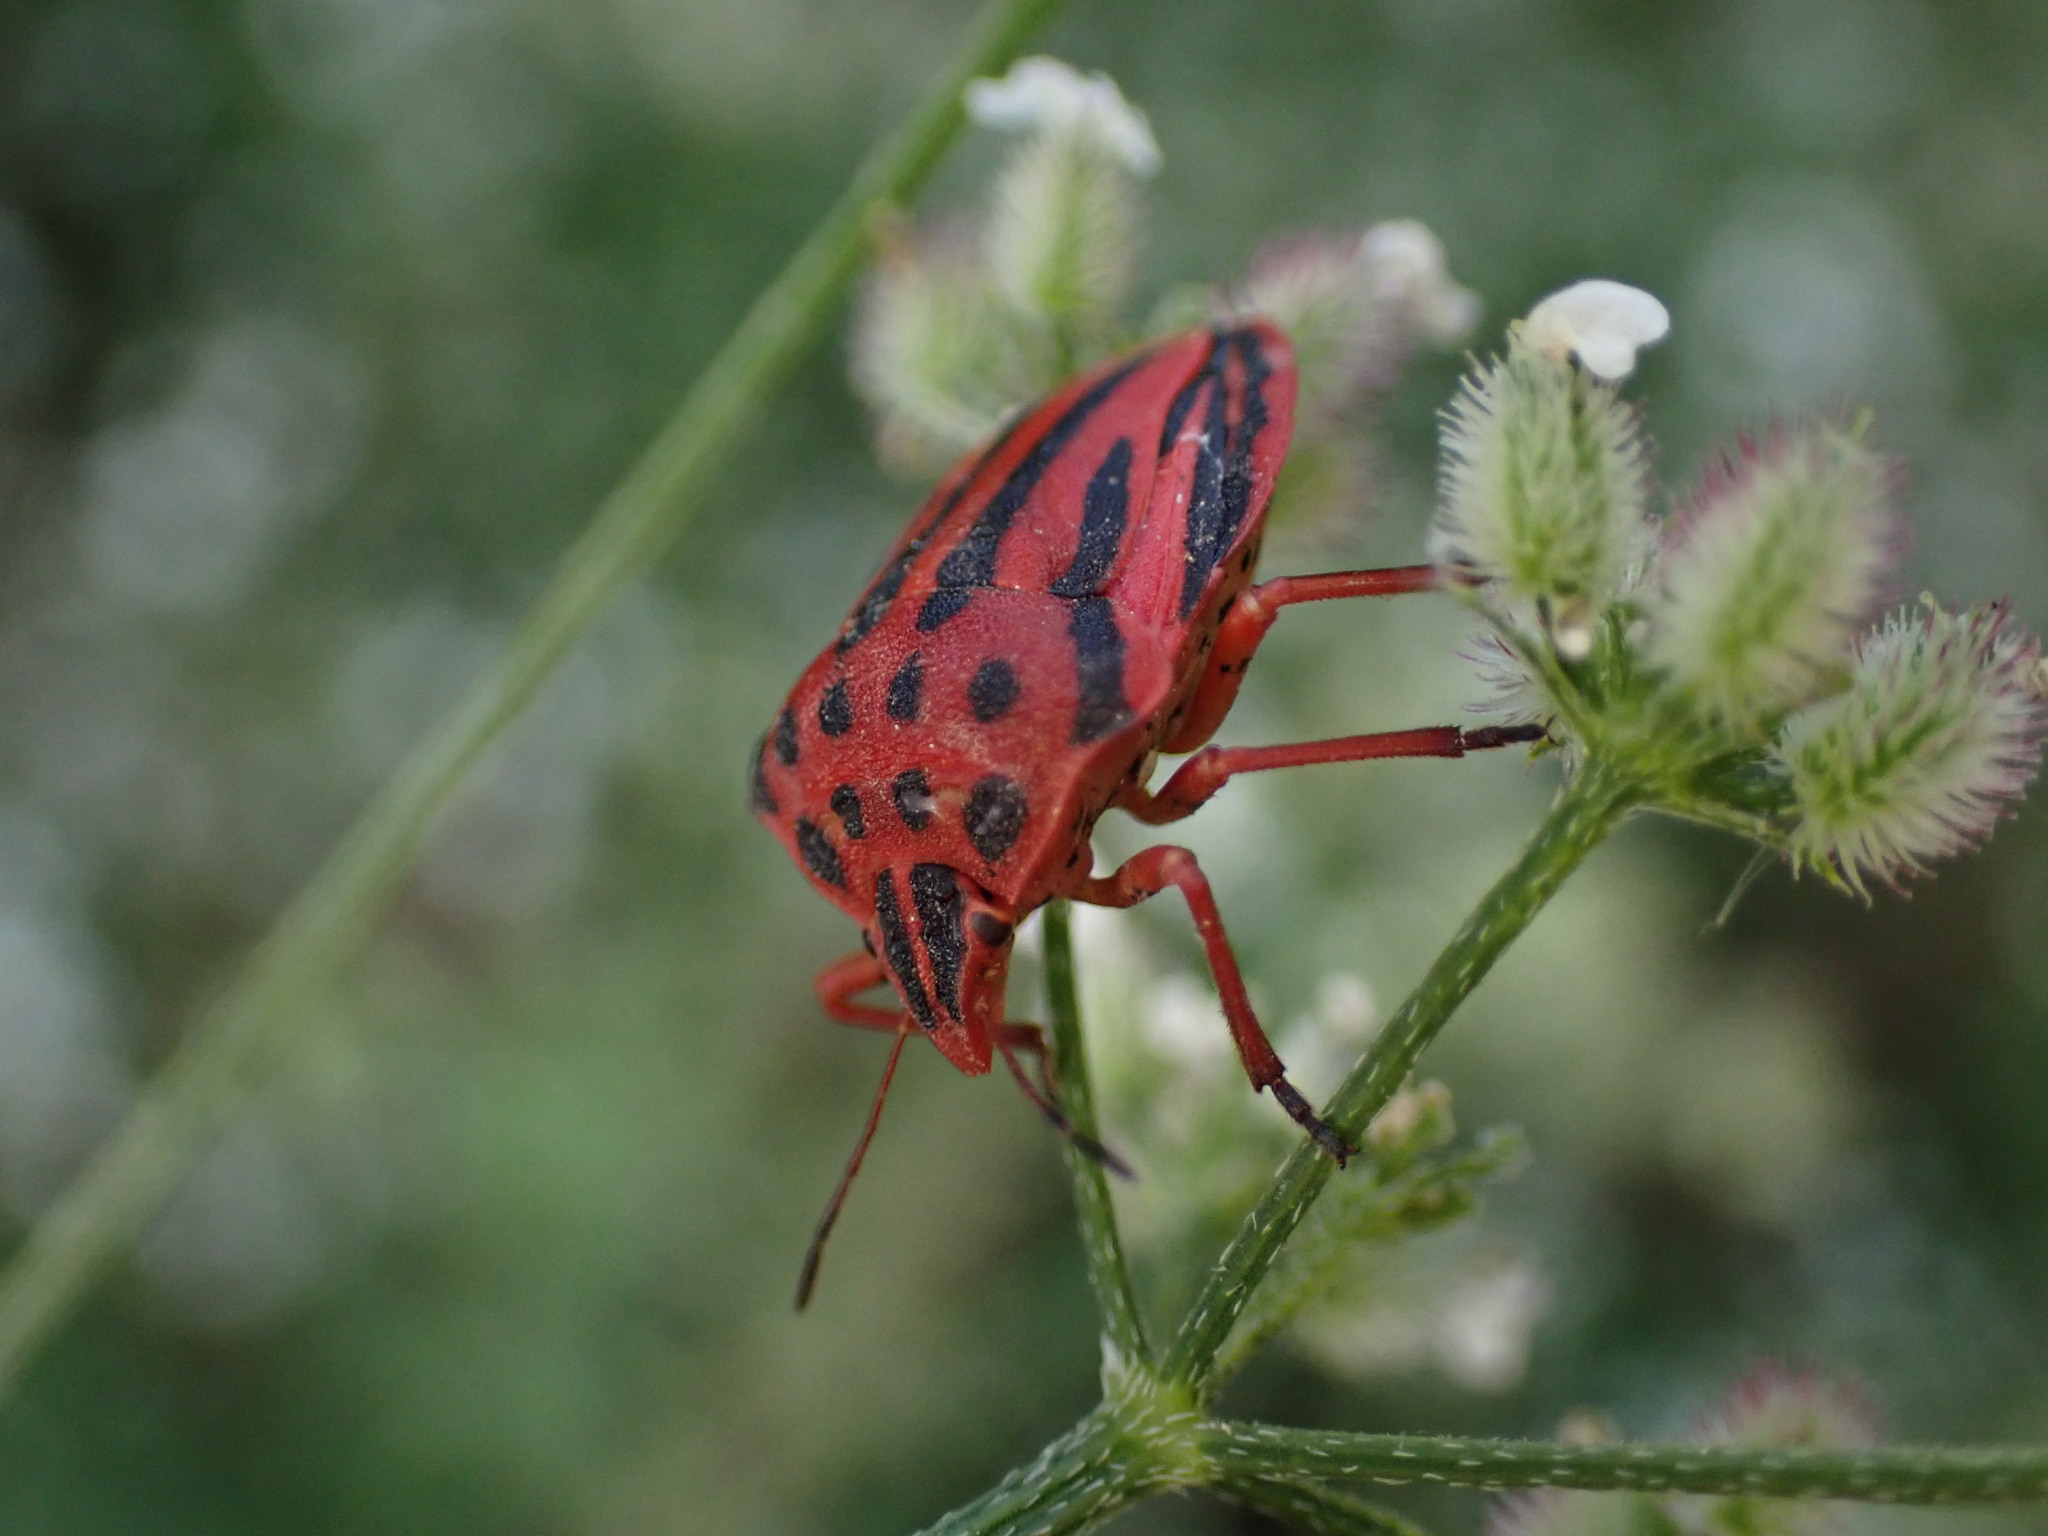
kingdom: Animalia
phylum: Arthropoda
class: Insecta
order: Hemiptera
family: Pentatomidae
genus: Graphosoma
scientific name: Graphosoma semipunctatum
